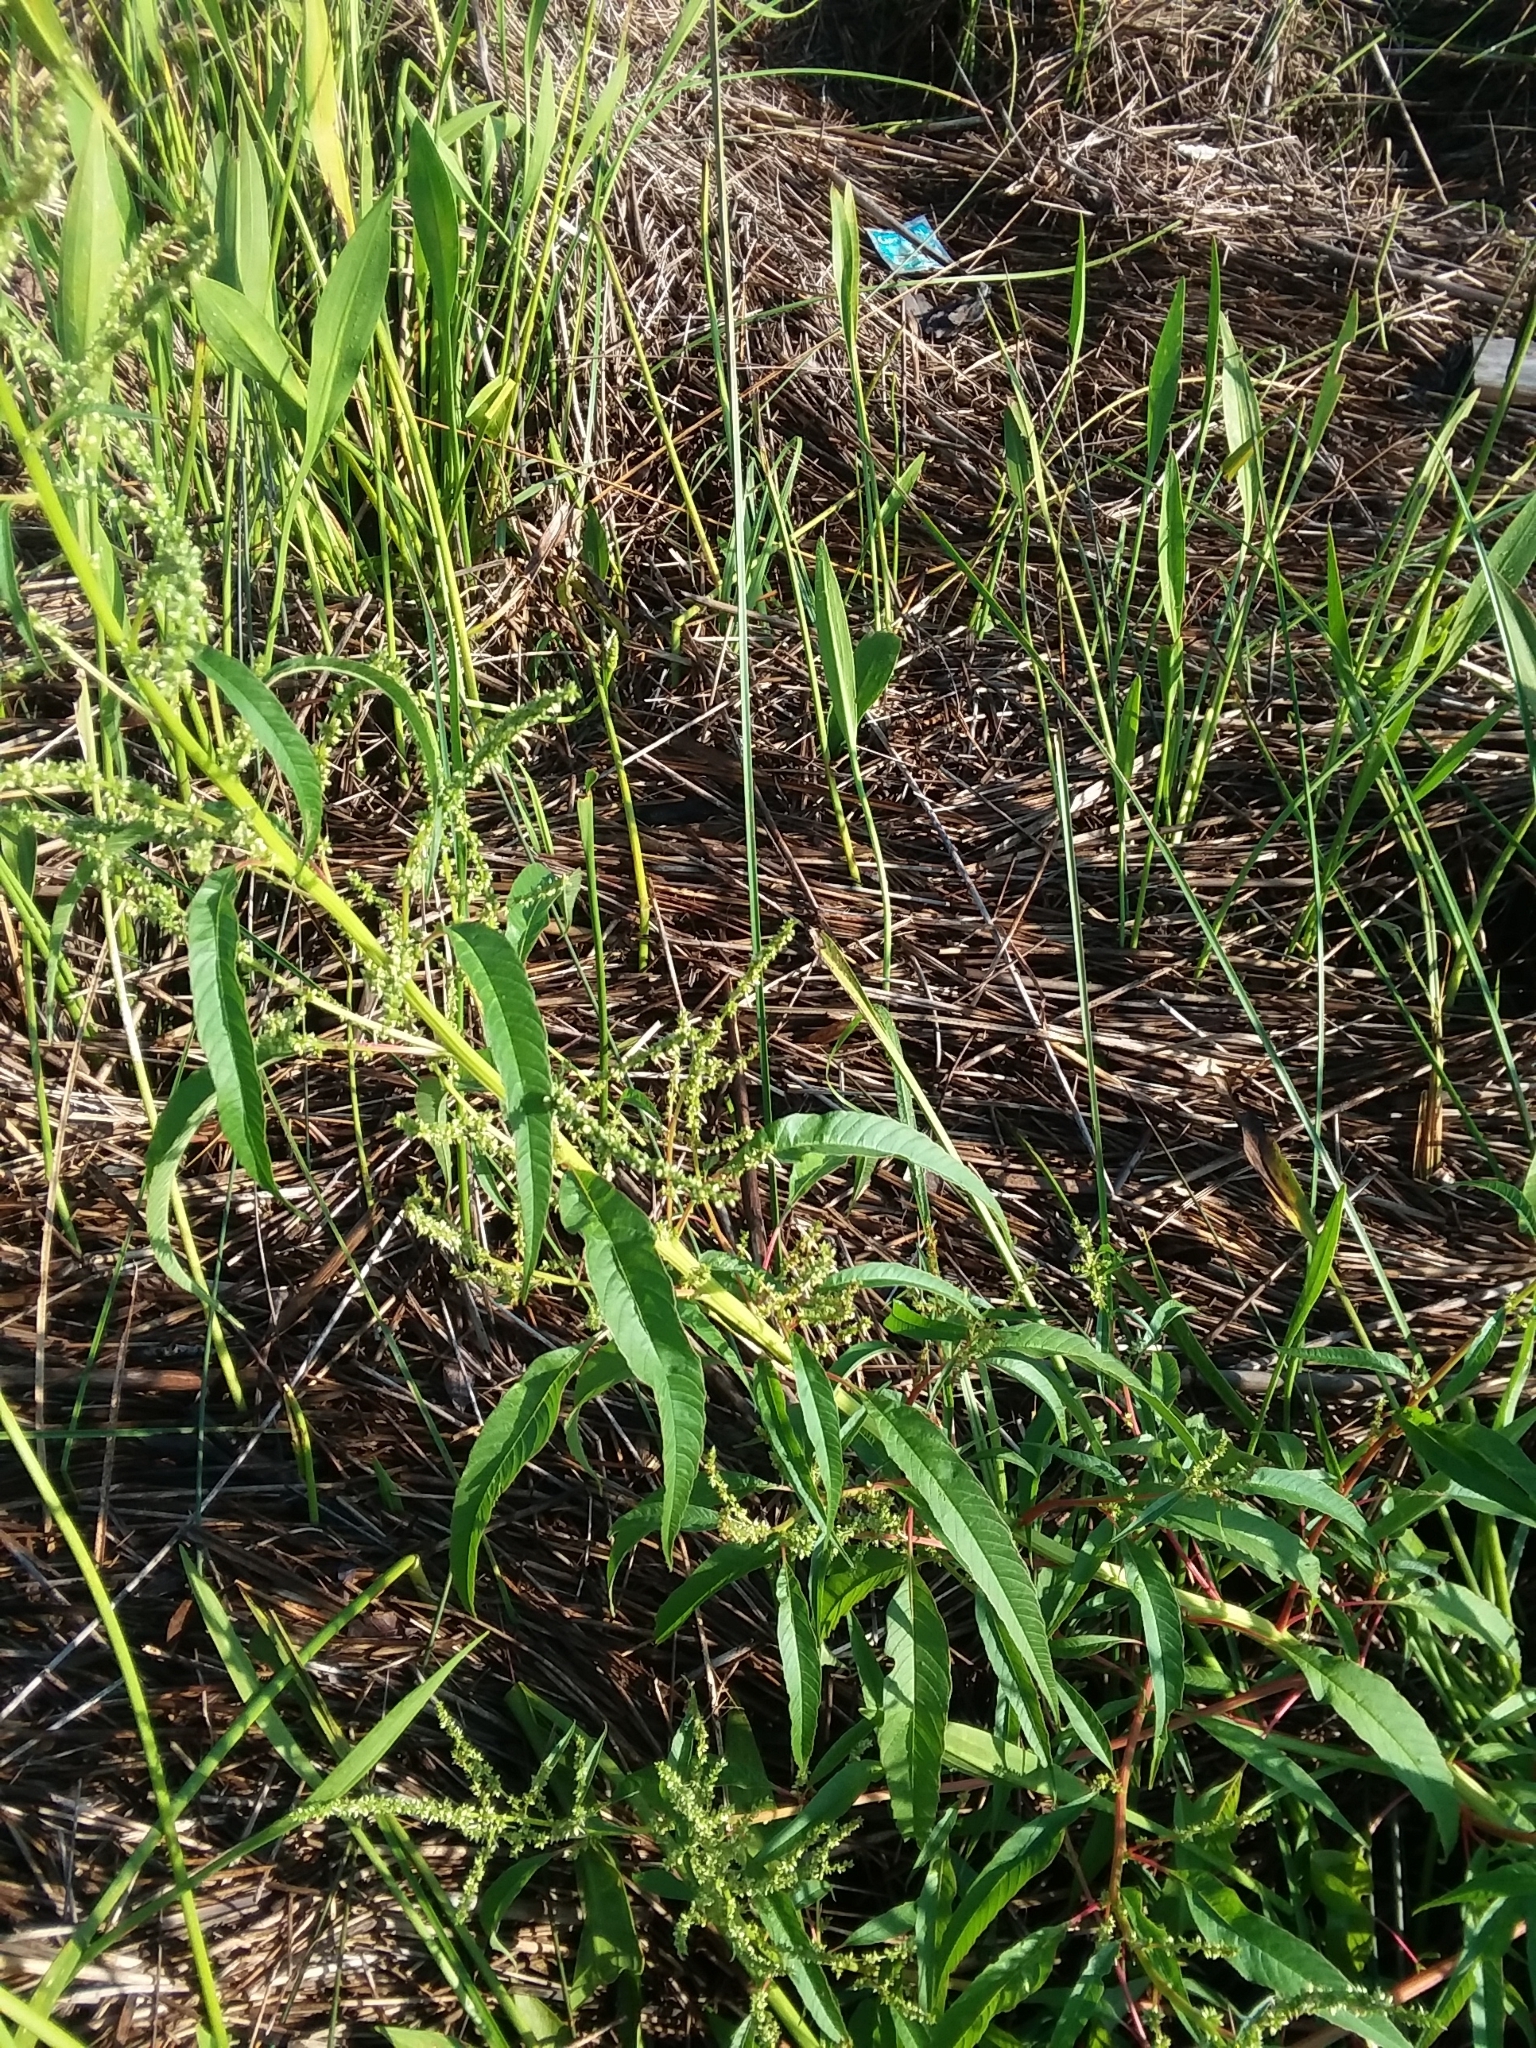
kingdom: Plantae
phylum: Tracheophyta
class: Magnoliopsida
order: Caryophyllales
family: Amaranthaceae
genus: Amaranthus
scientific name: Amaranthus australis
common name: Southern amaranth
